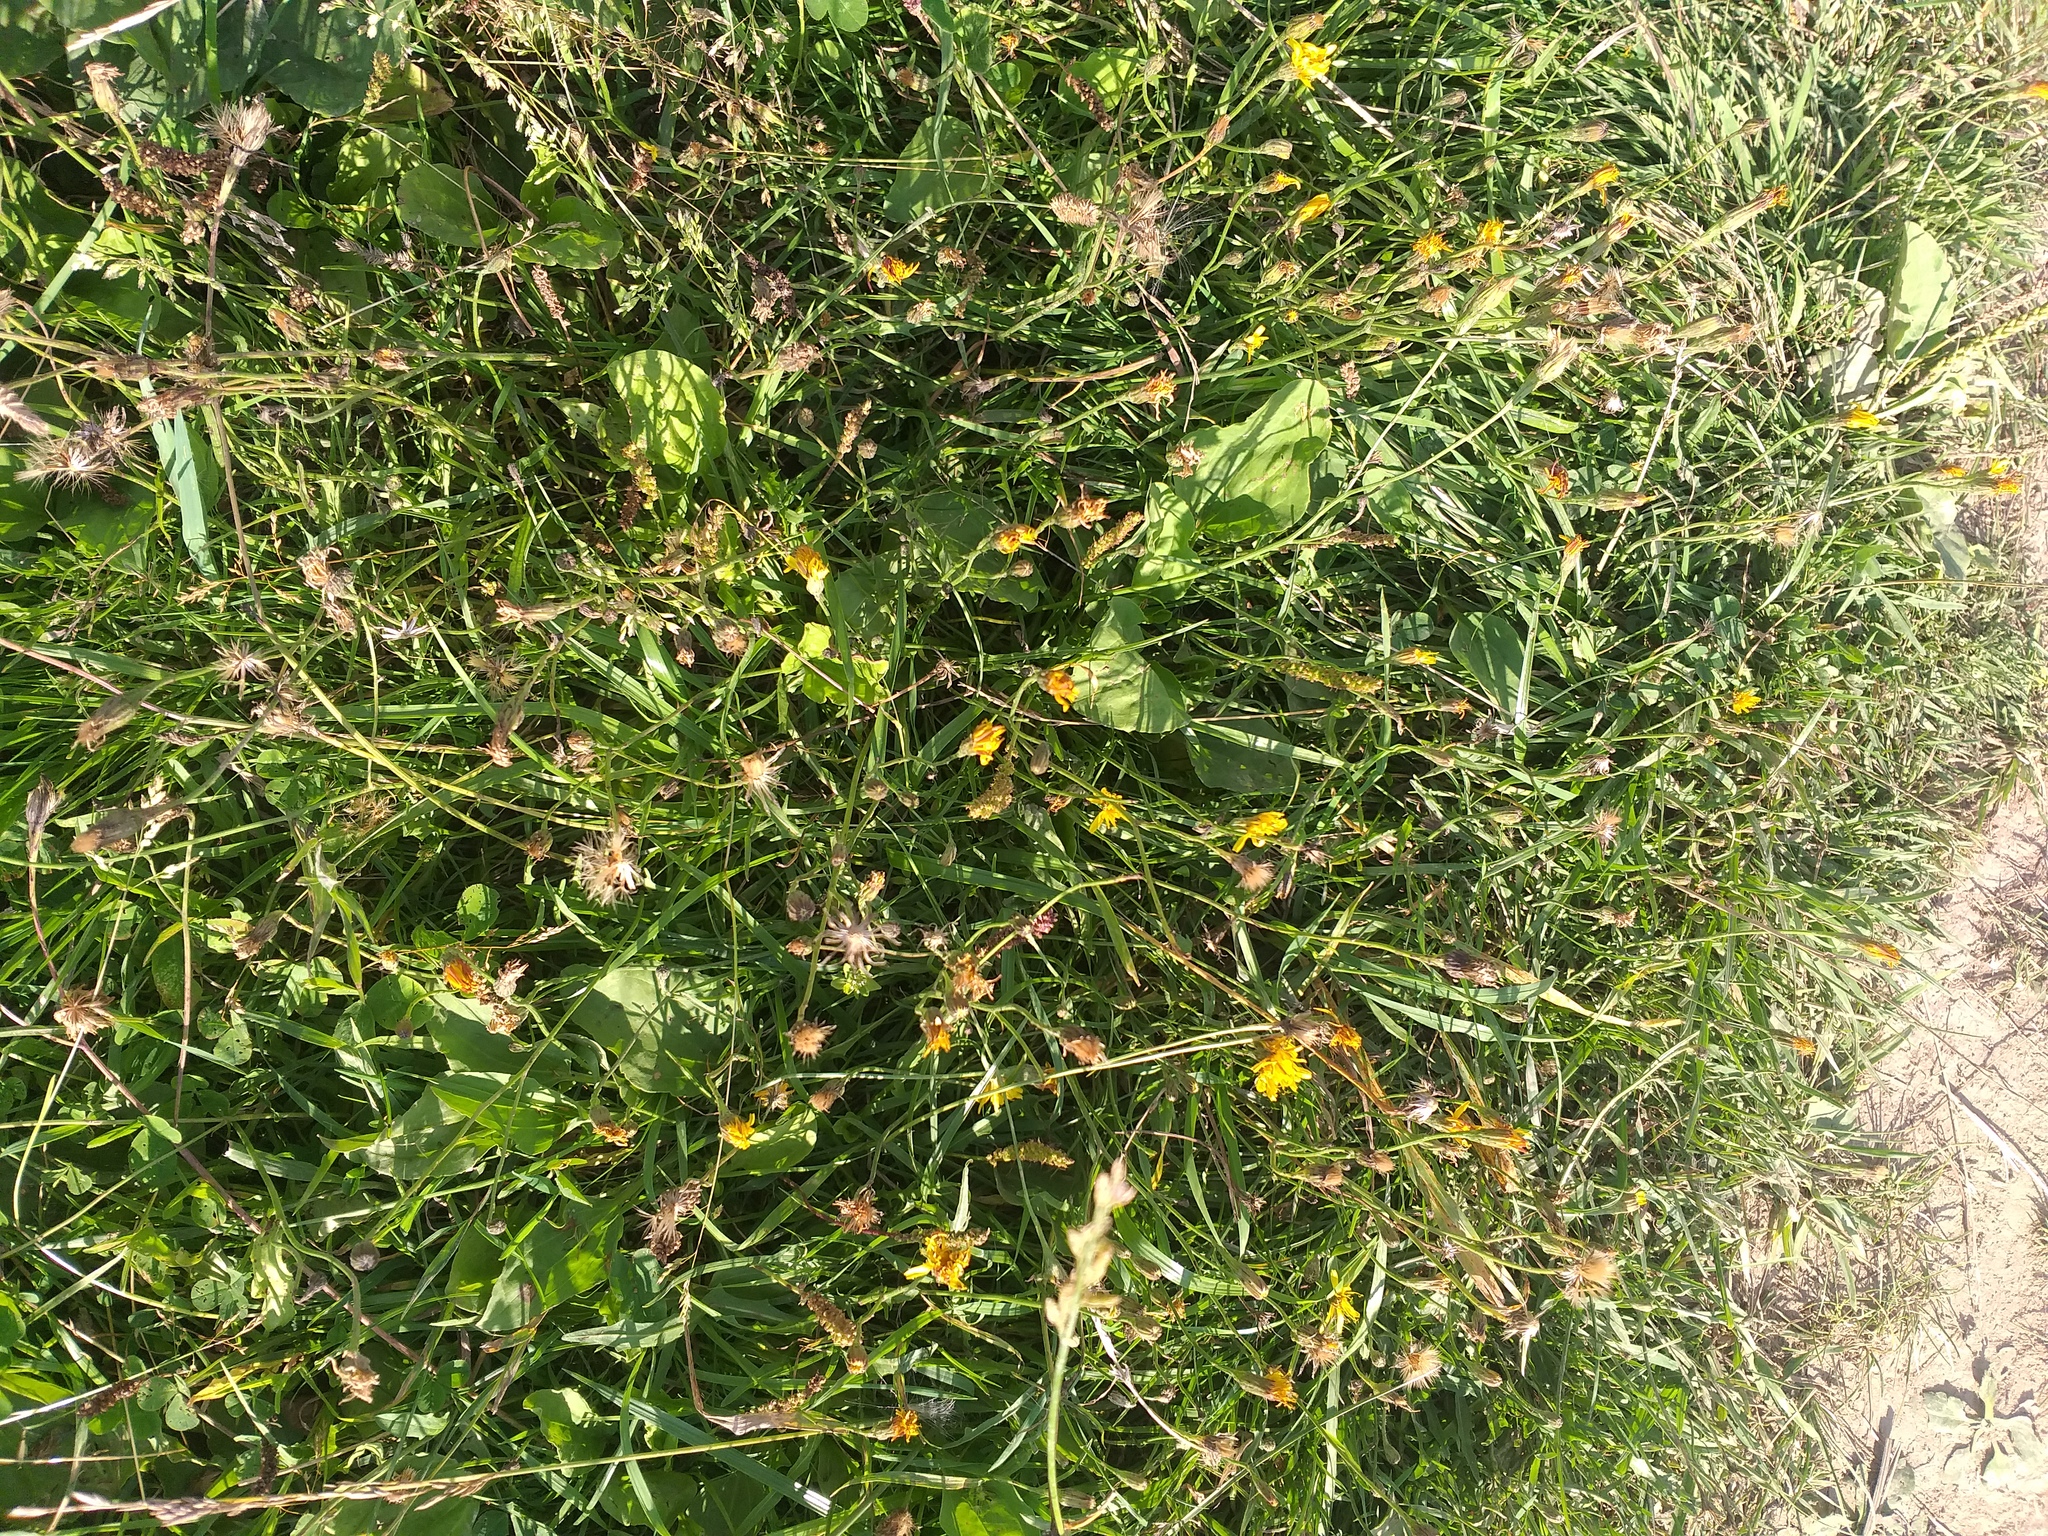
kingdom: Plantae
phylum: Tracheophyta
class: Magnoliopsida
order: Asterales
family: Asteraceae
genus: Scorzoneroides
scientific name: Scorzoneroides autumnalis
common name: Autumn hawkbit
